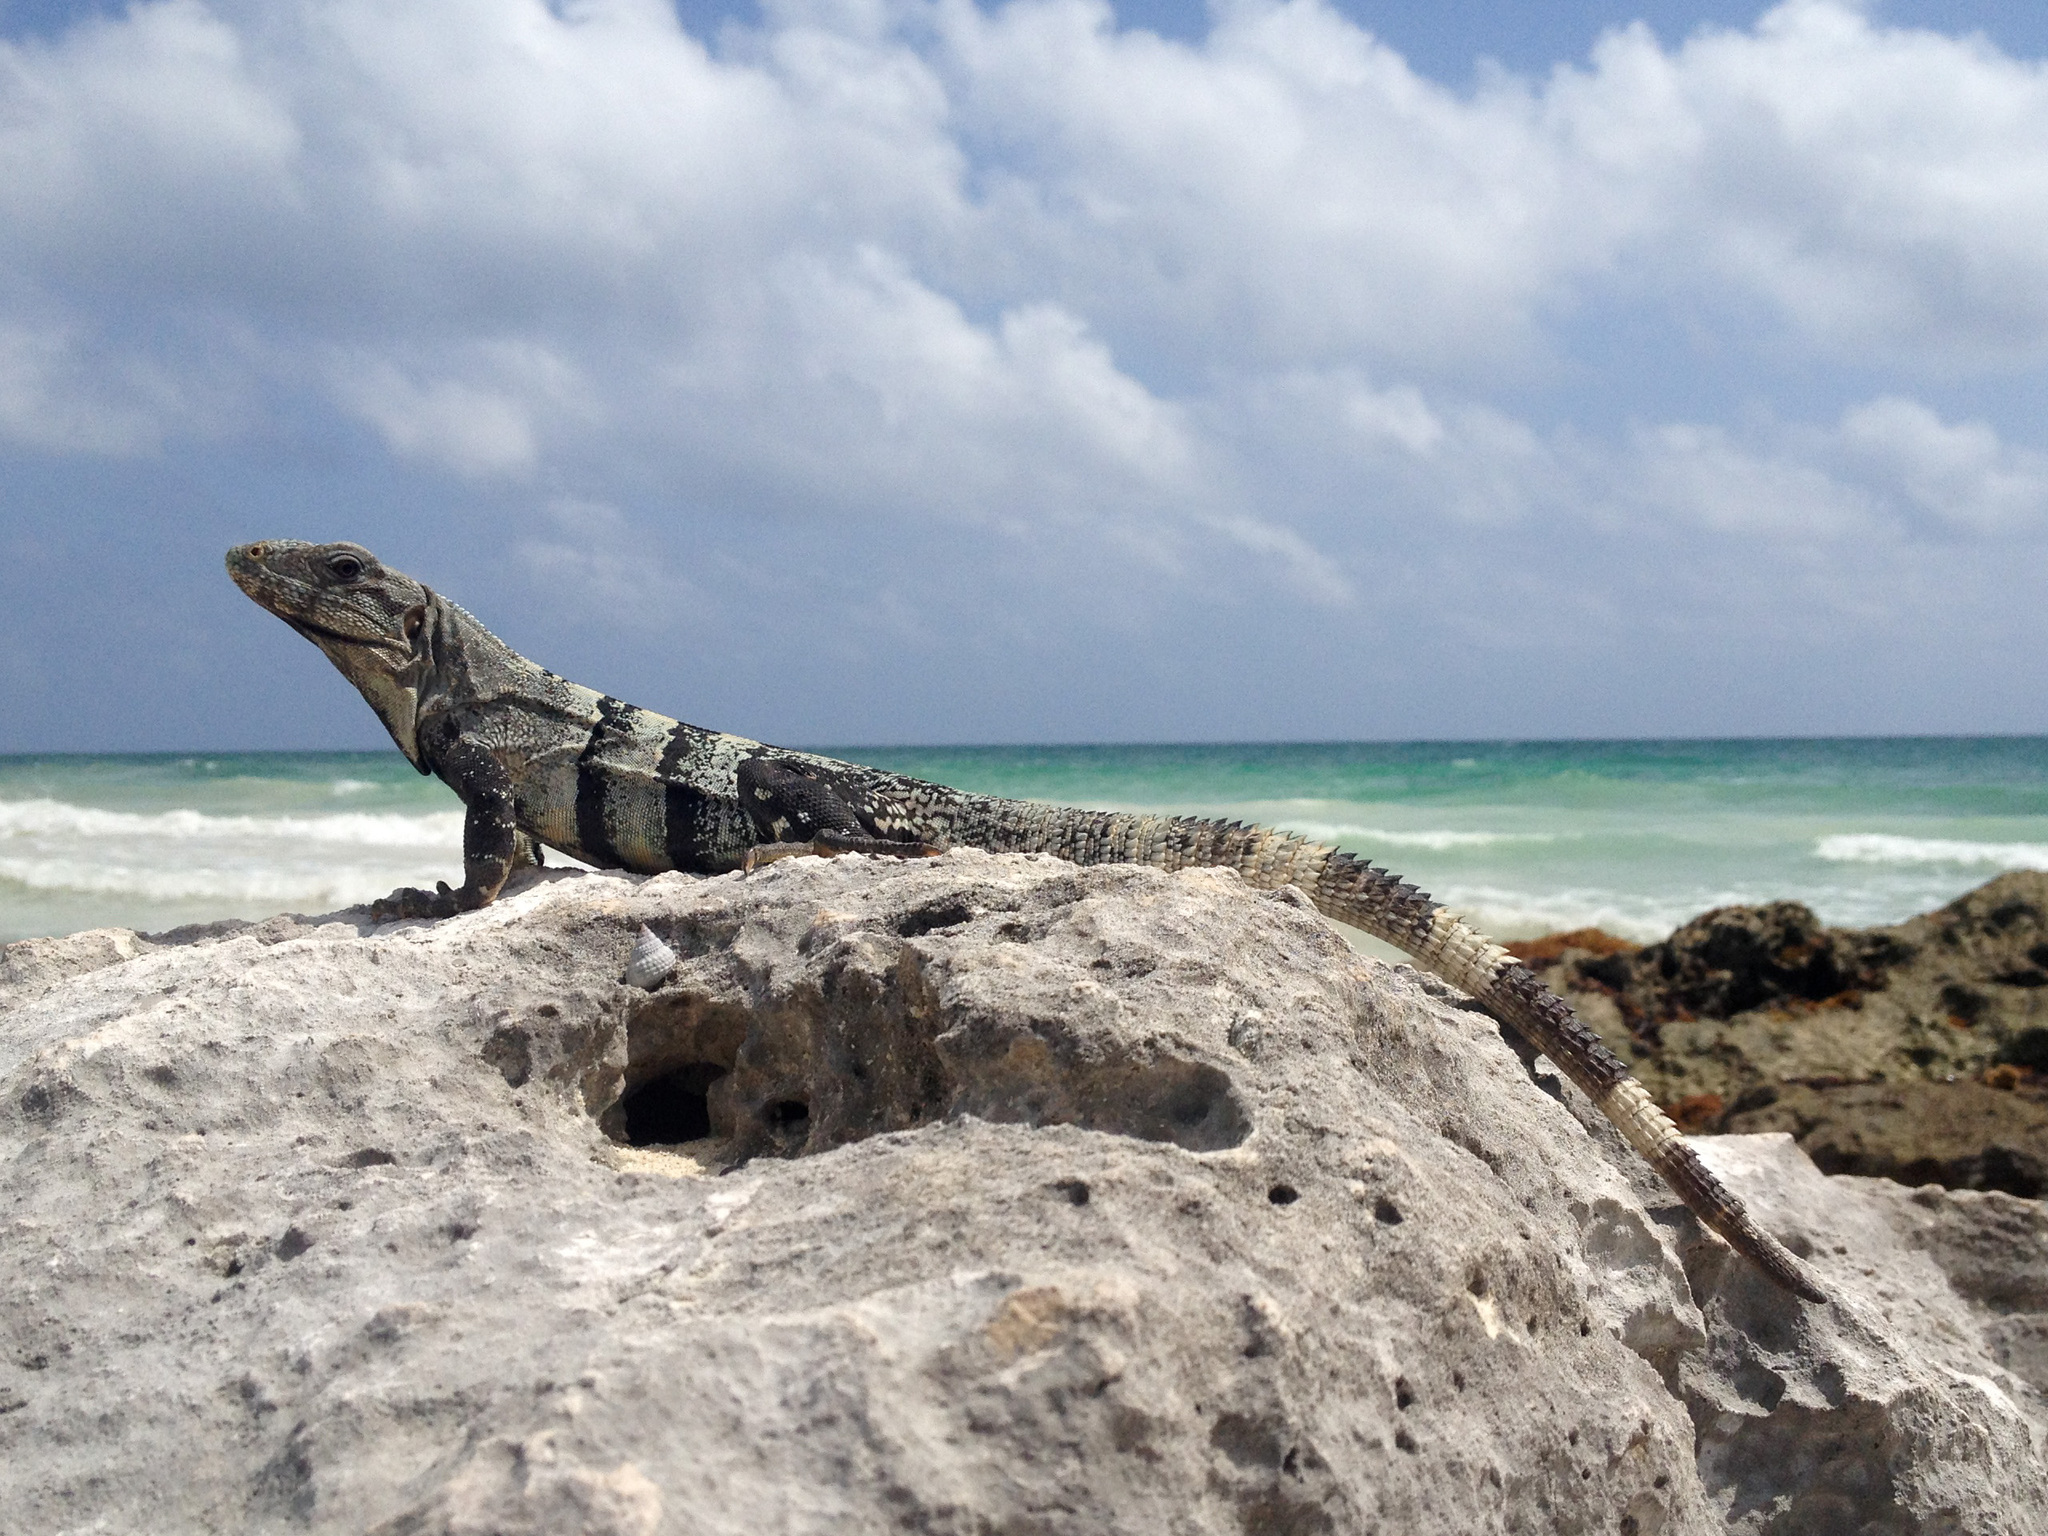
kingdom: Animalia
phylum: Chordata
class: Squamata
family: Iguanidae
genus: Ctenosaura
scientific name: Ctenosaura similis
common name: Black spiny-tailed iguana
